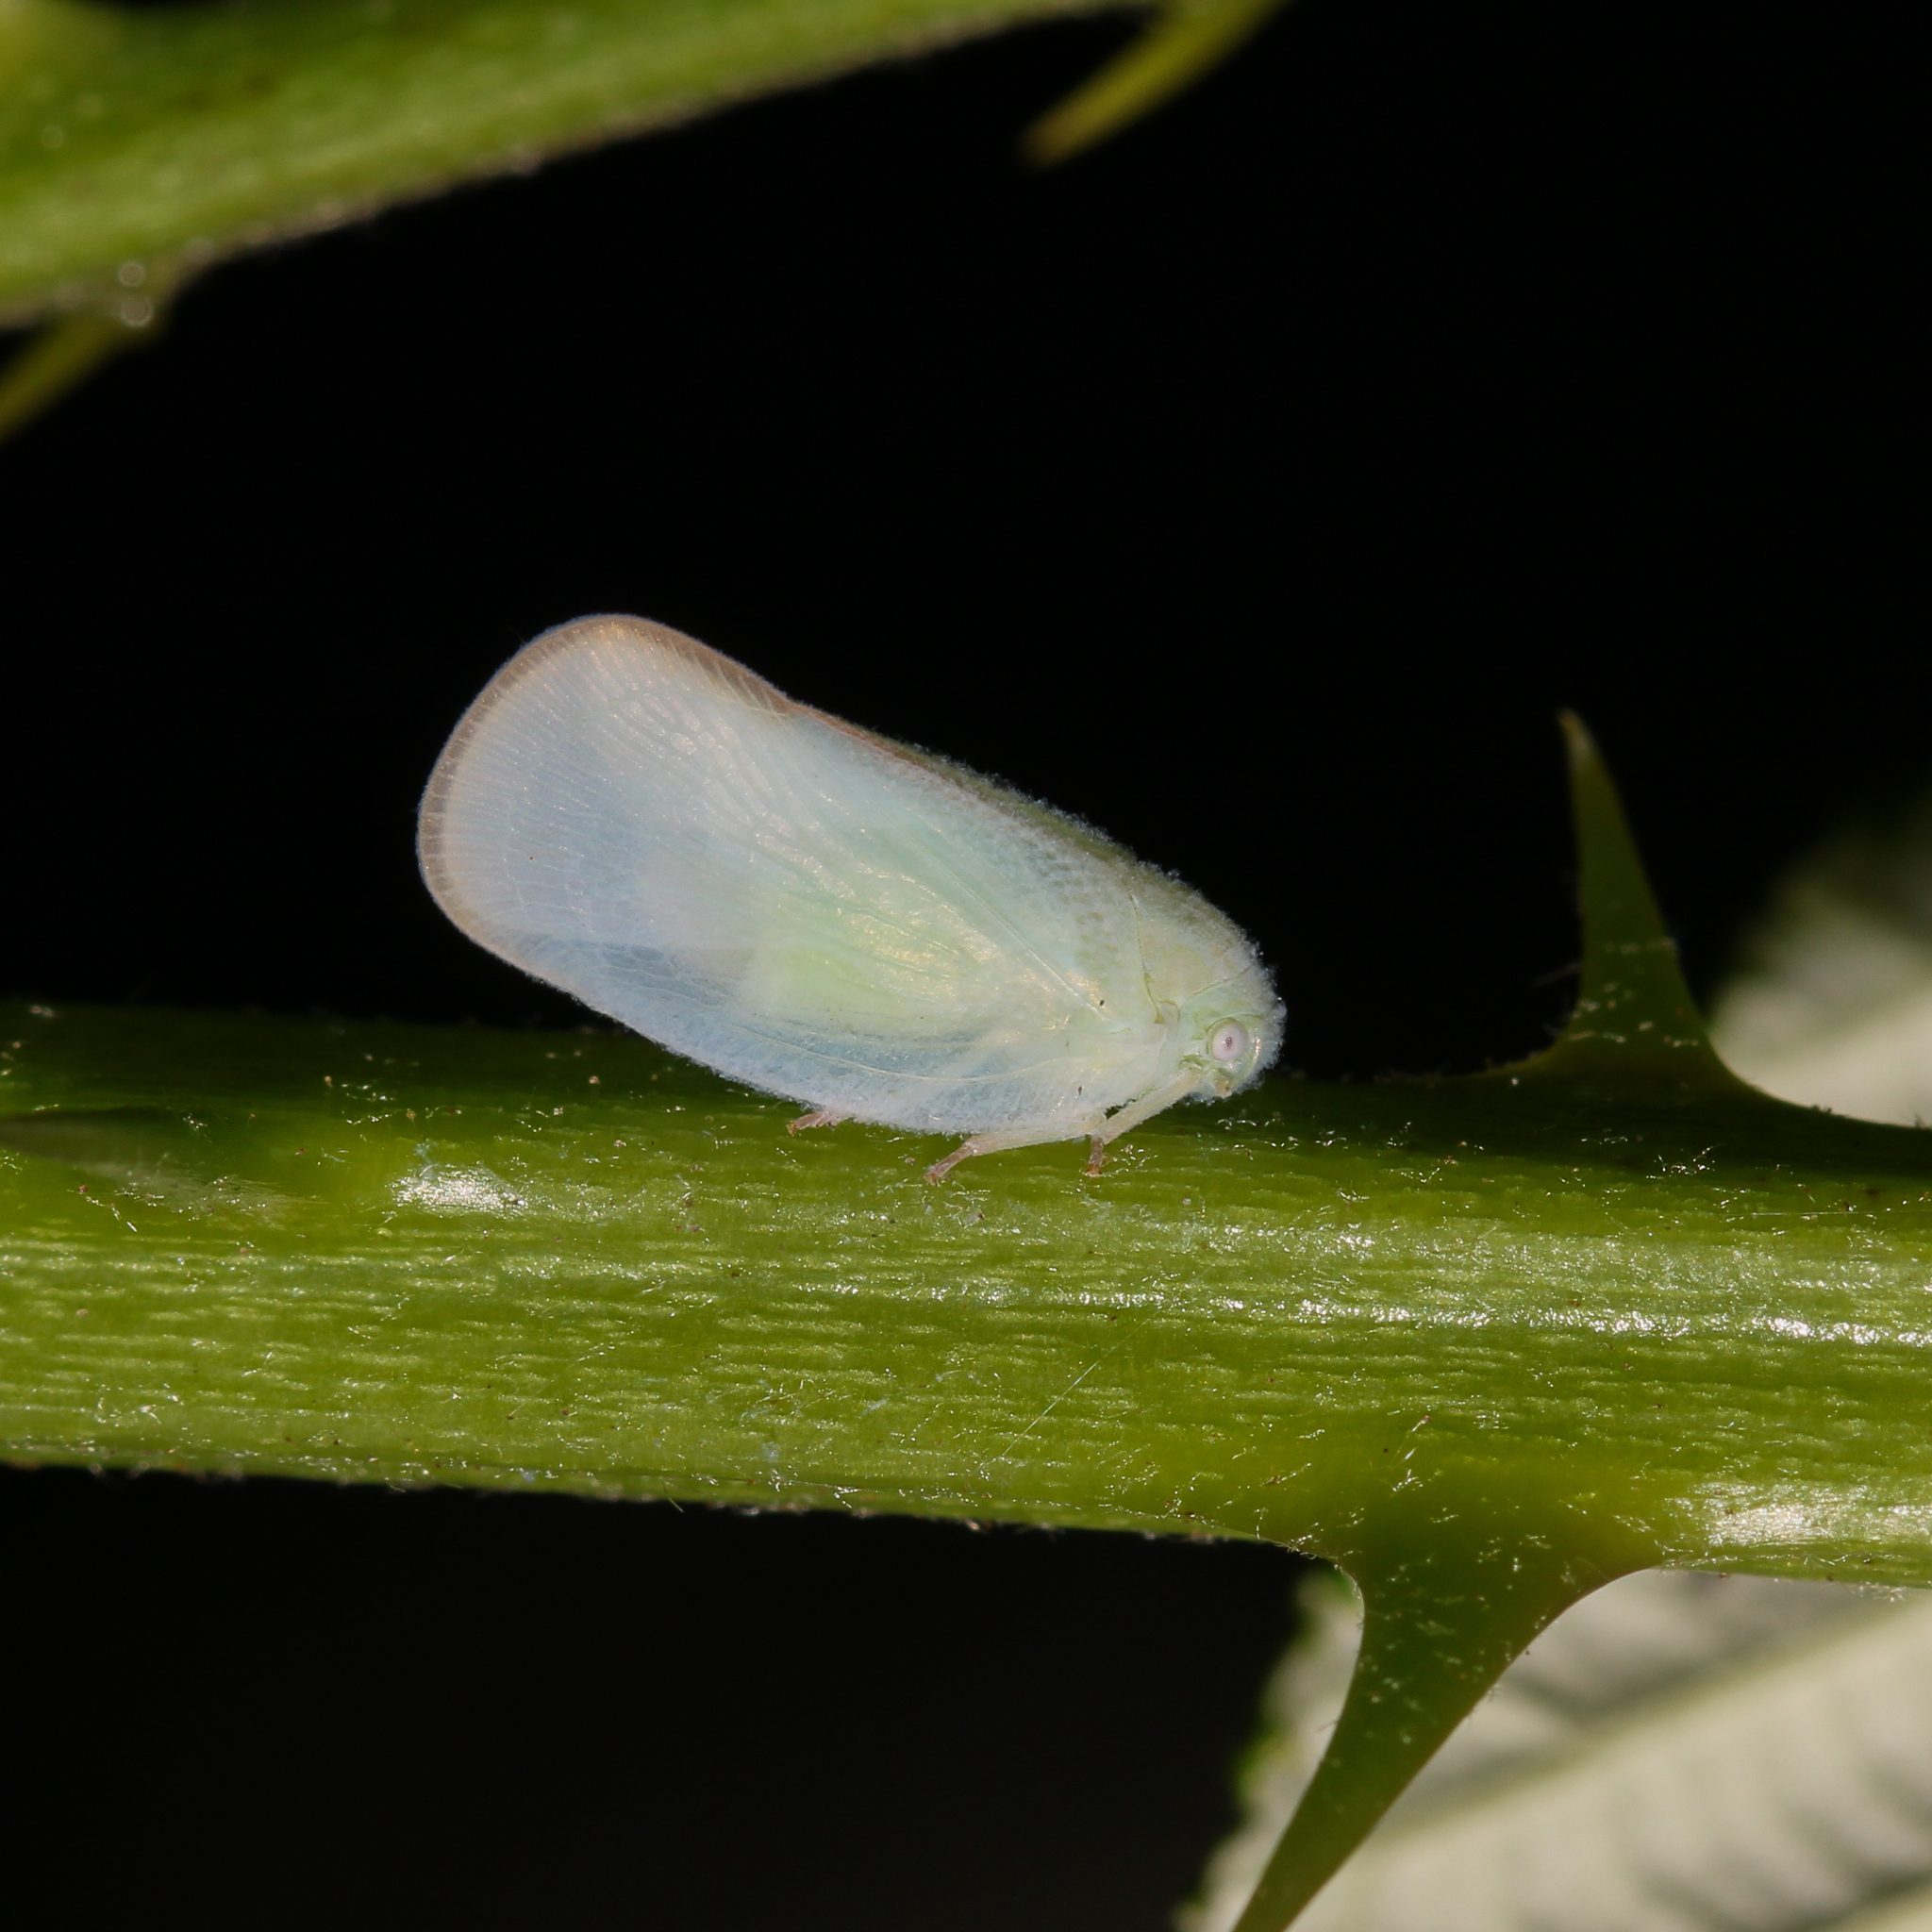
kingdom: Animalia
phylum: Arthropoda
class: Insecta
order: Hemiptera
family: Flatidae
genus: Ormenoides
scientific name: Ormenoides venusta
